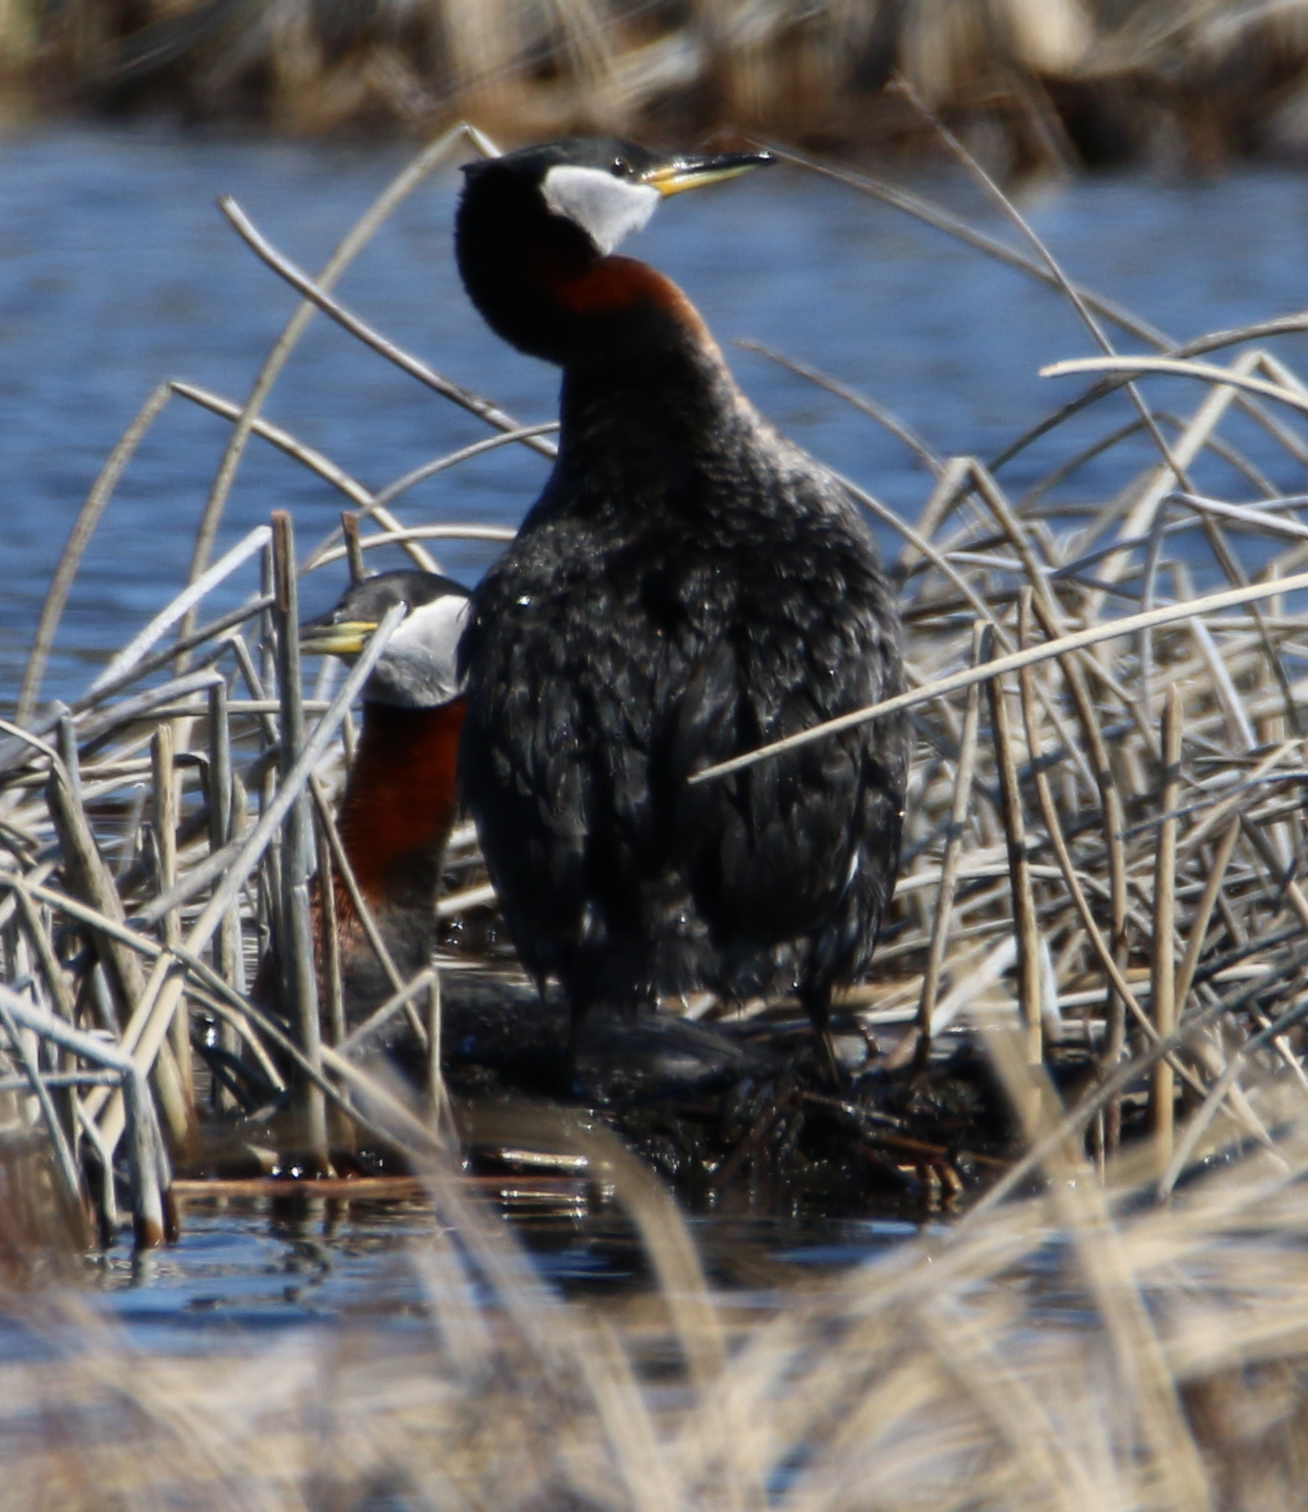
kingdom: Animalia
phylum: Chordata
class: Aves
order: Podicipediformes
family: Podicipedidae
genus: Podiceps
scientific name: Podiceps grisegena
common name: Red-necked grebe
